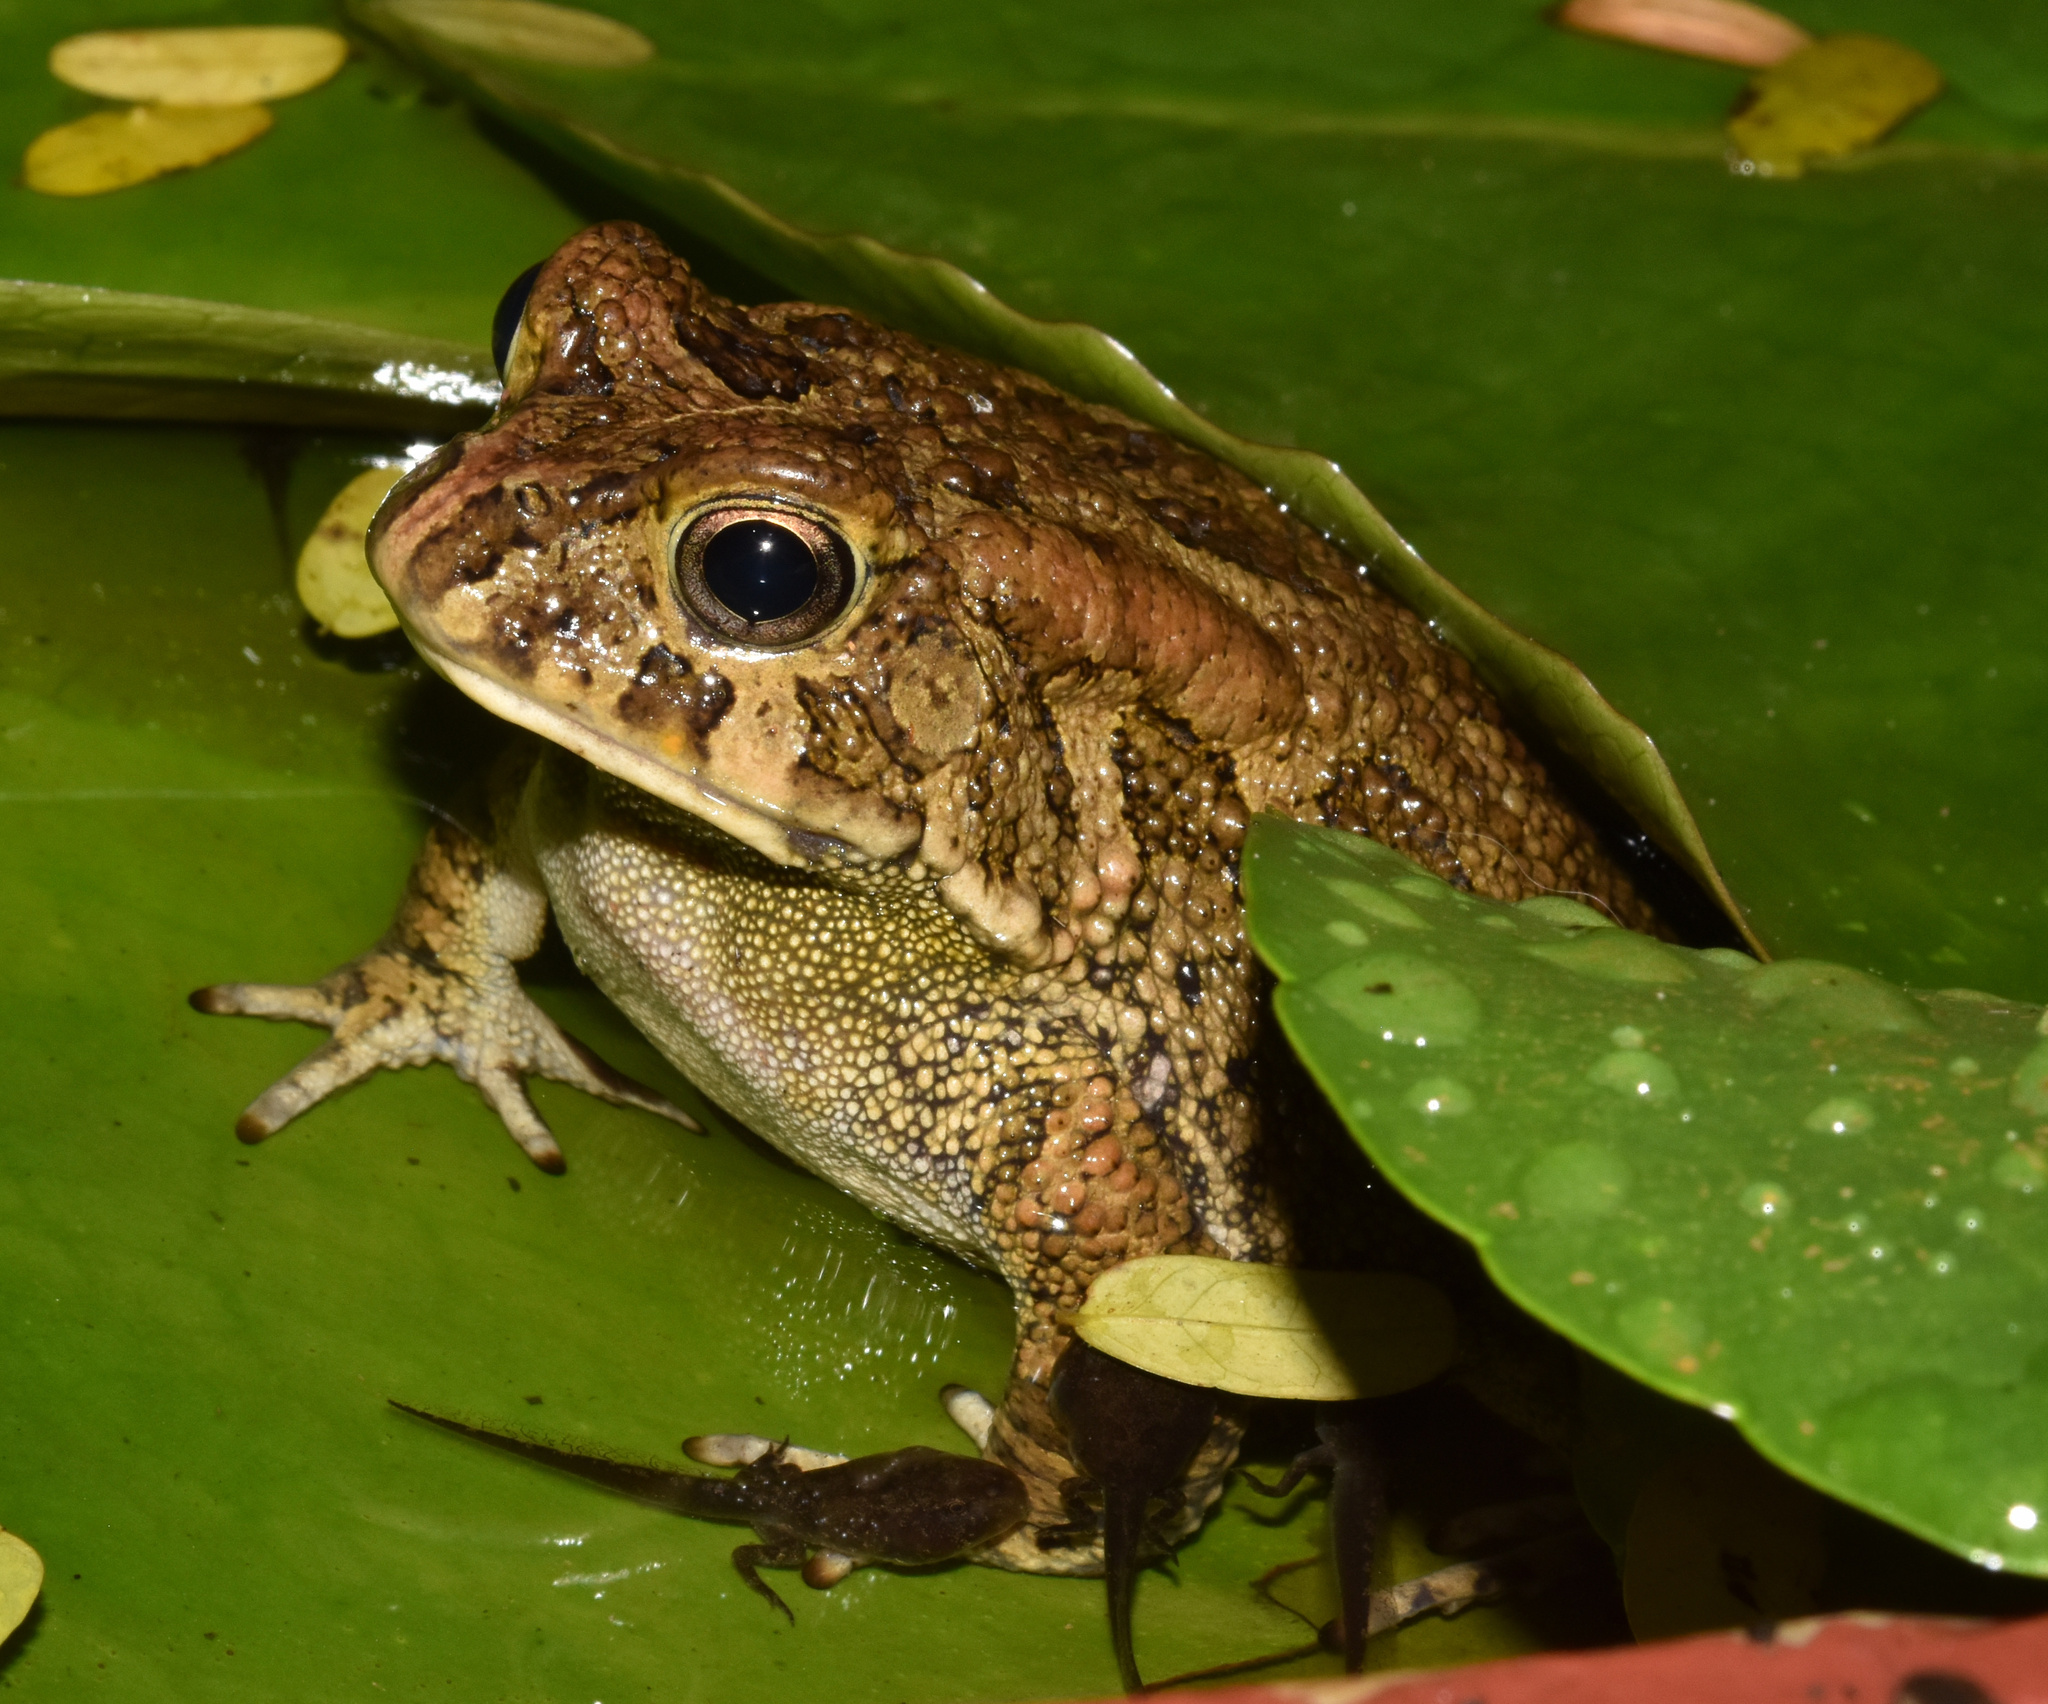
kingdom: Animalia
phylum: Chordata
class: Amphibia
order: Anura
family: Bufonidae
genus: Sclerophrys
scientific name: Sclerophrys gutturalis
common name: African common toad
